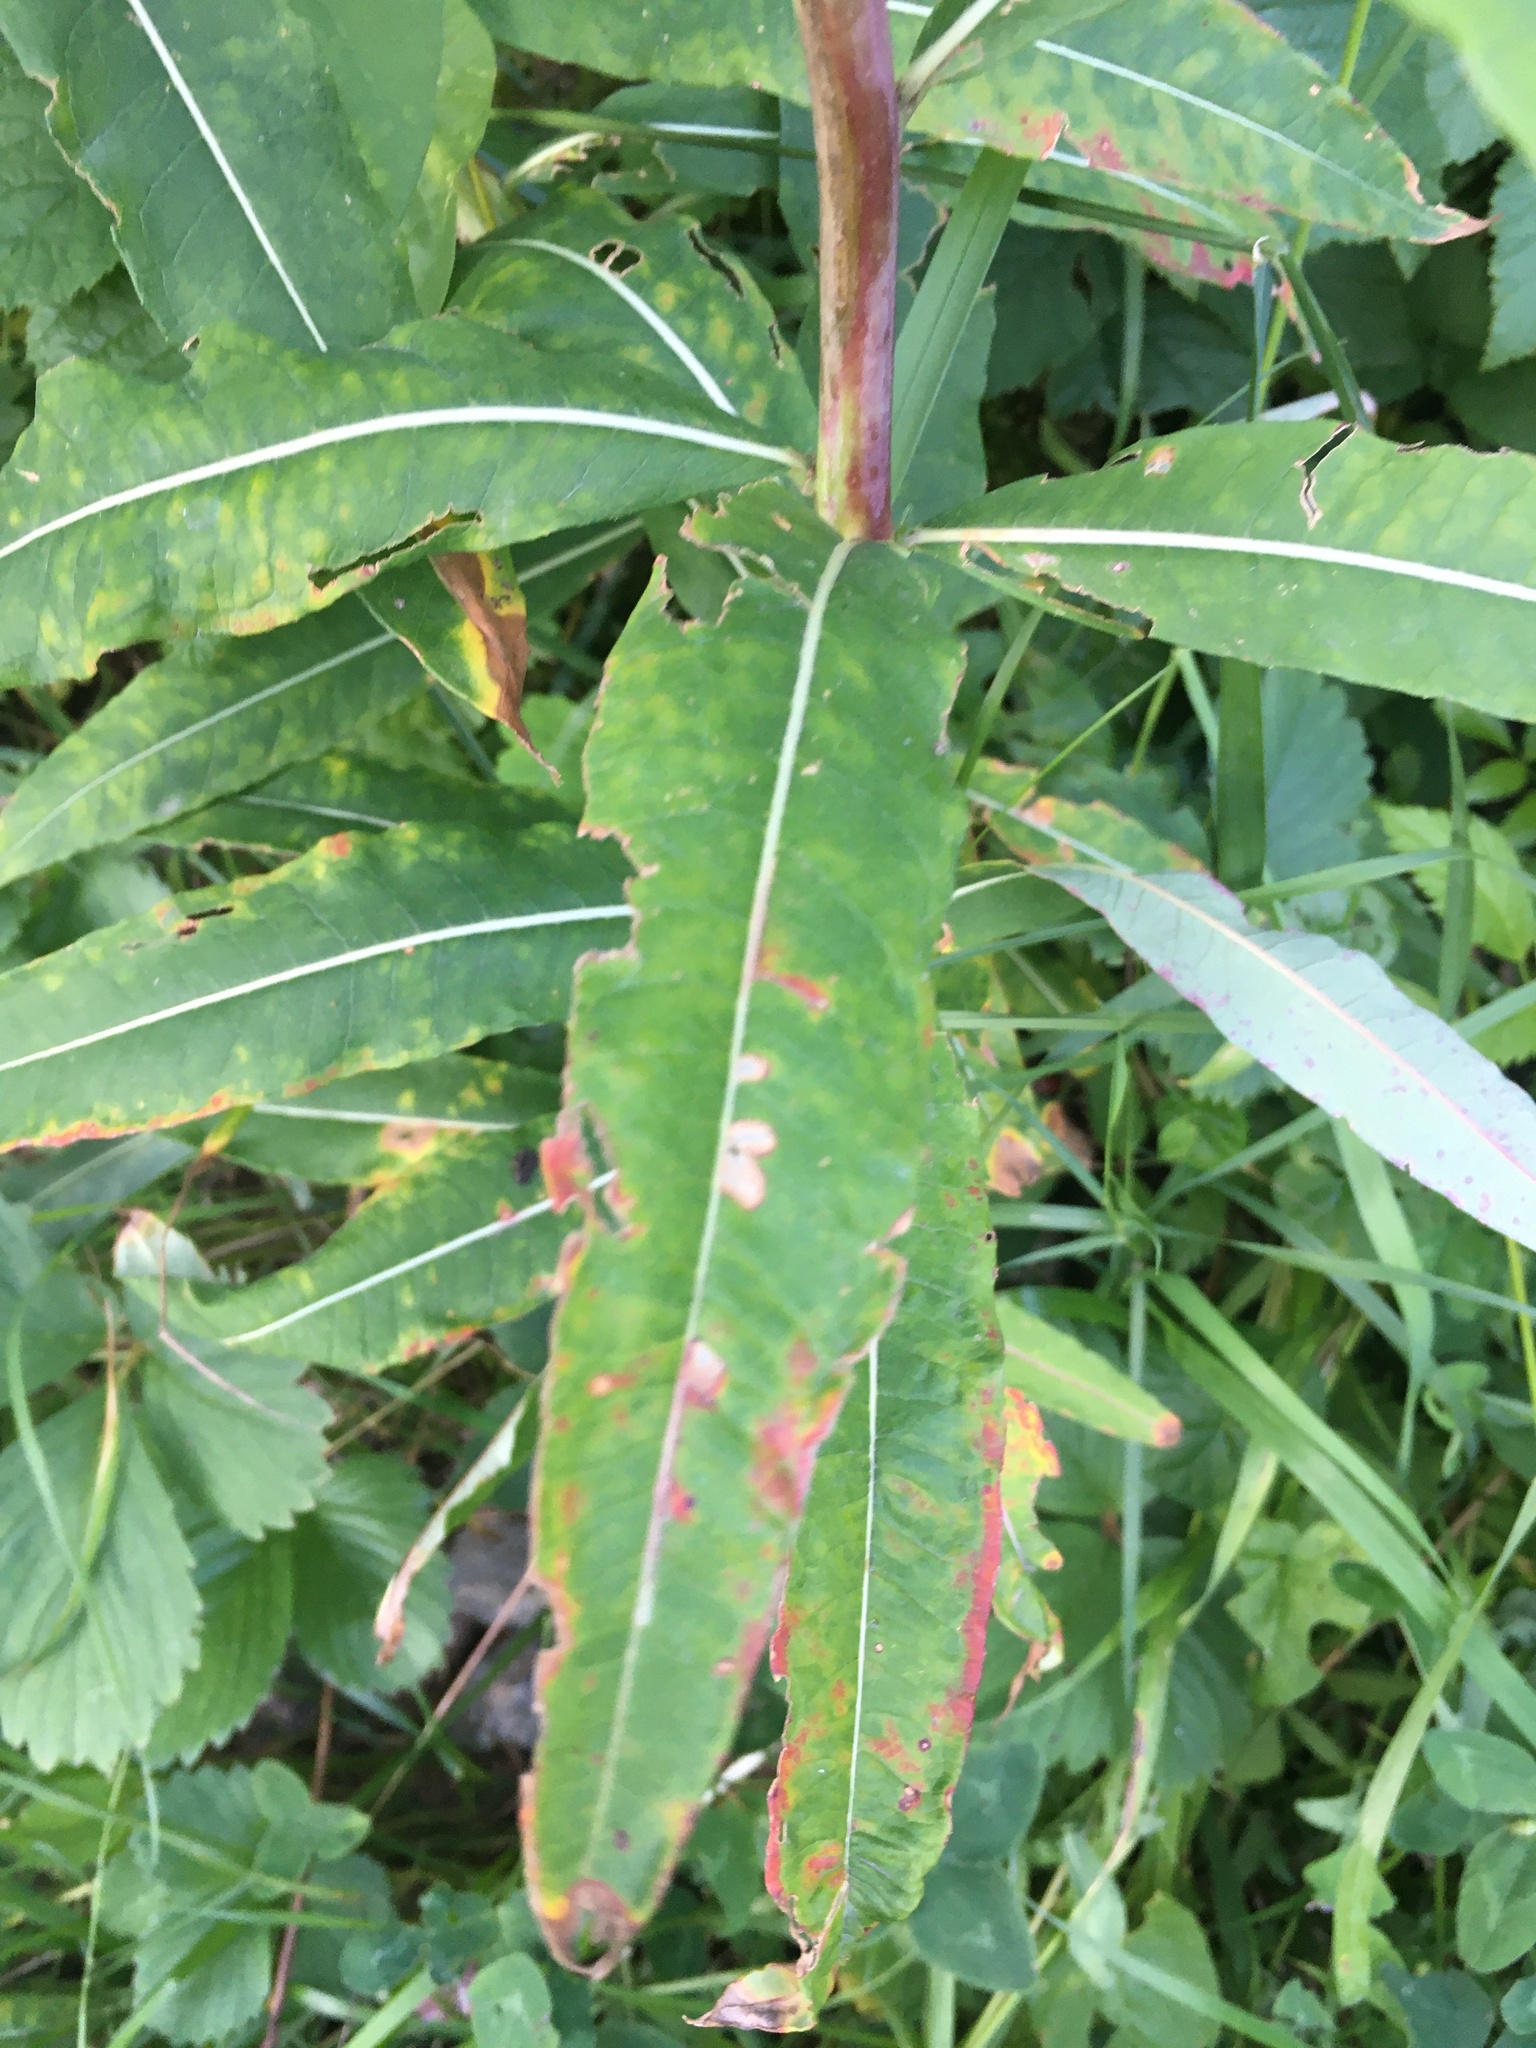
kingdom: Plantae
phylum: Tracheophyta
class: Magnoliopsida
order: Myrtales
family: Onagraceae
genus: Chamaenerion
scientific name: Chamaenerion angustifolium
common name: Fireweed
